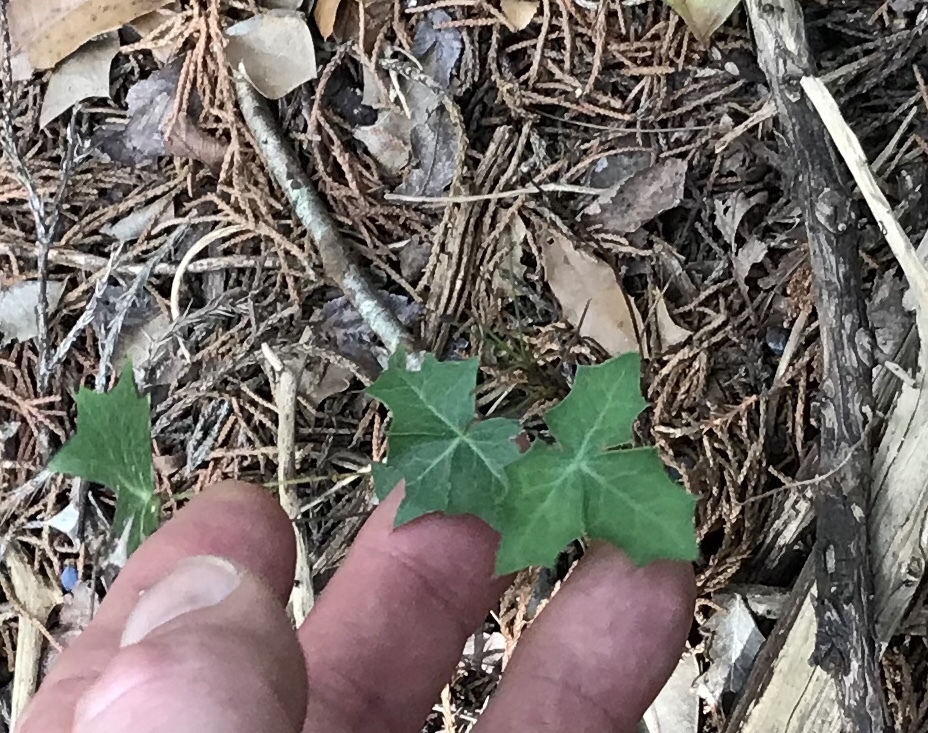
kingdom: Plantae
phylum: Tracheophyta
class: Magnoliopsida
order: Ranunculales
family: Berberidaceae
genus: Alloberberis
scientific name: Alloberberis trifoliolata
